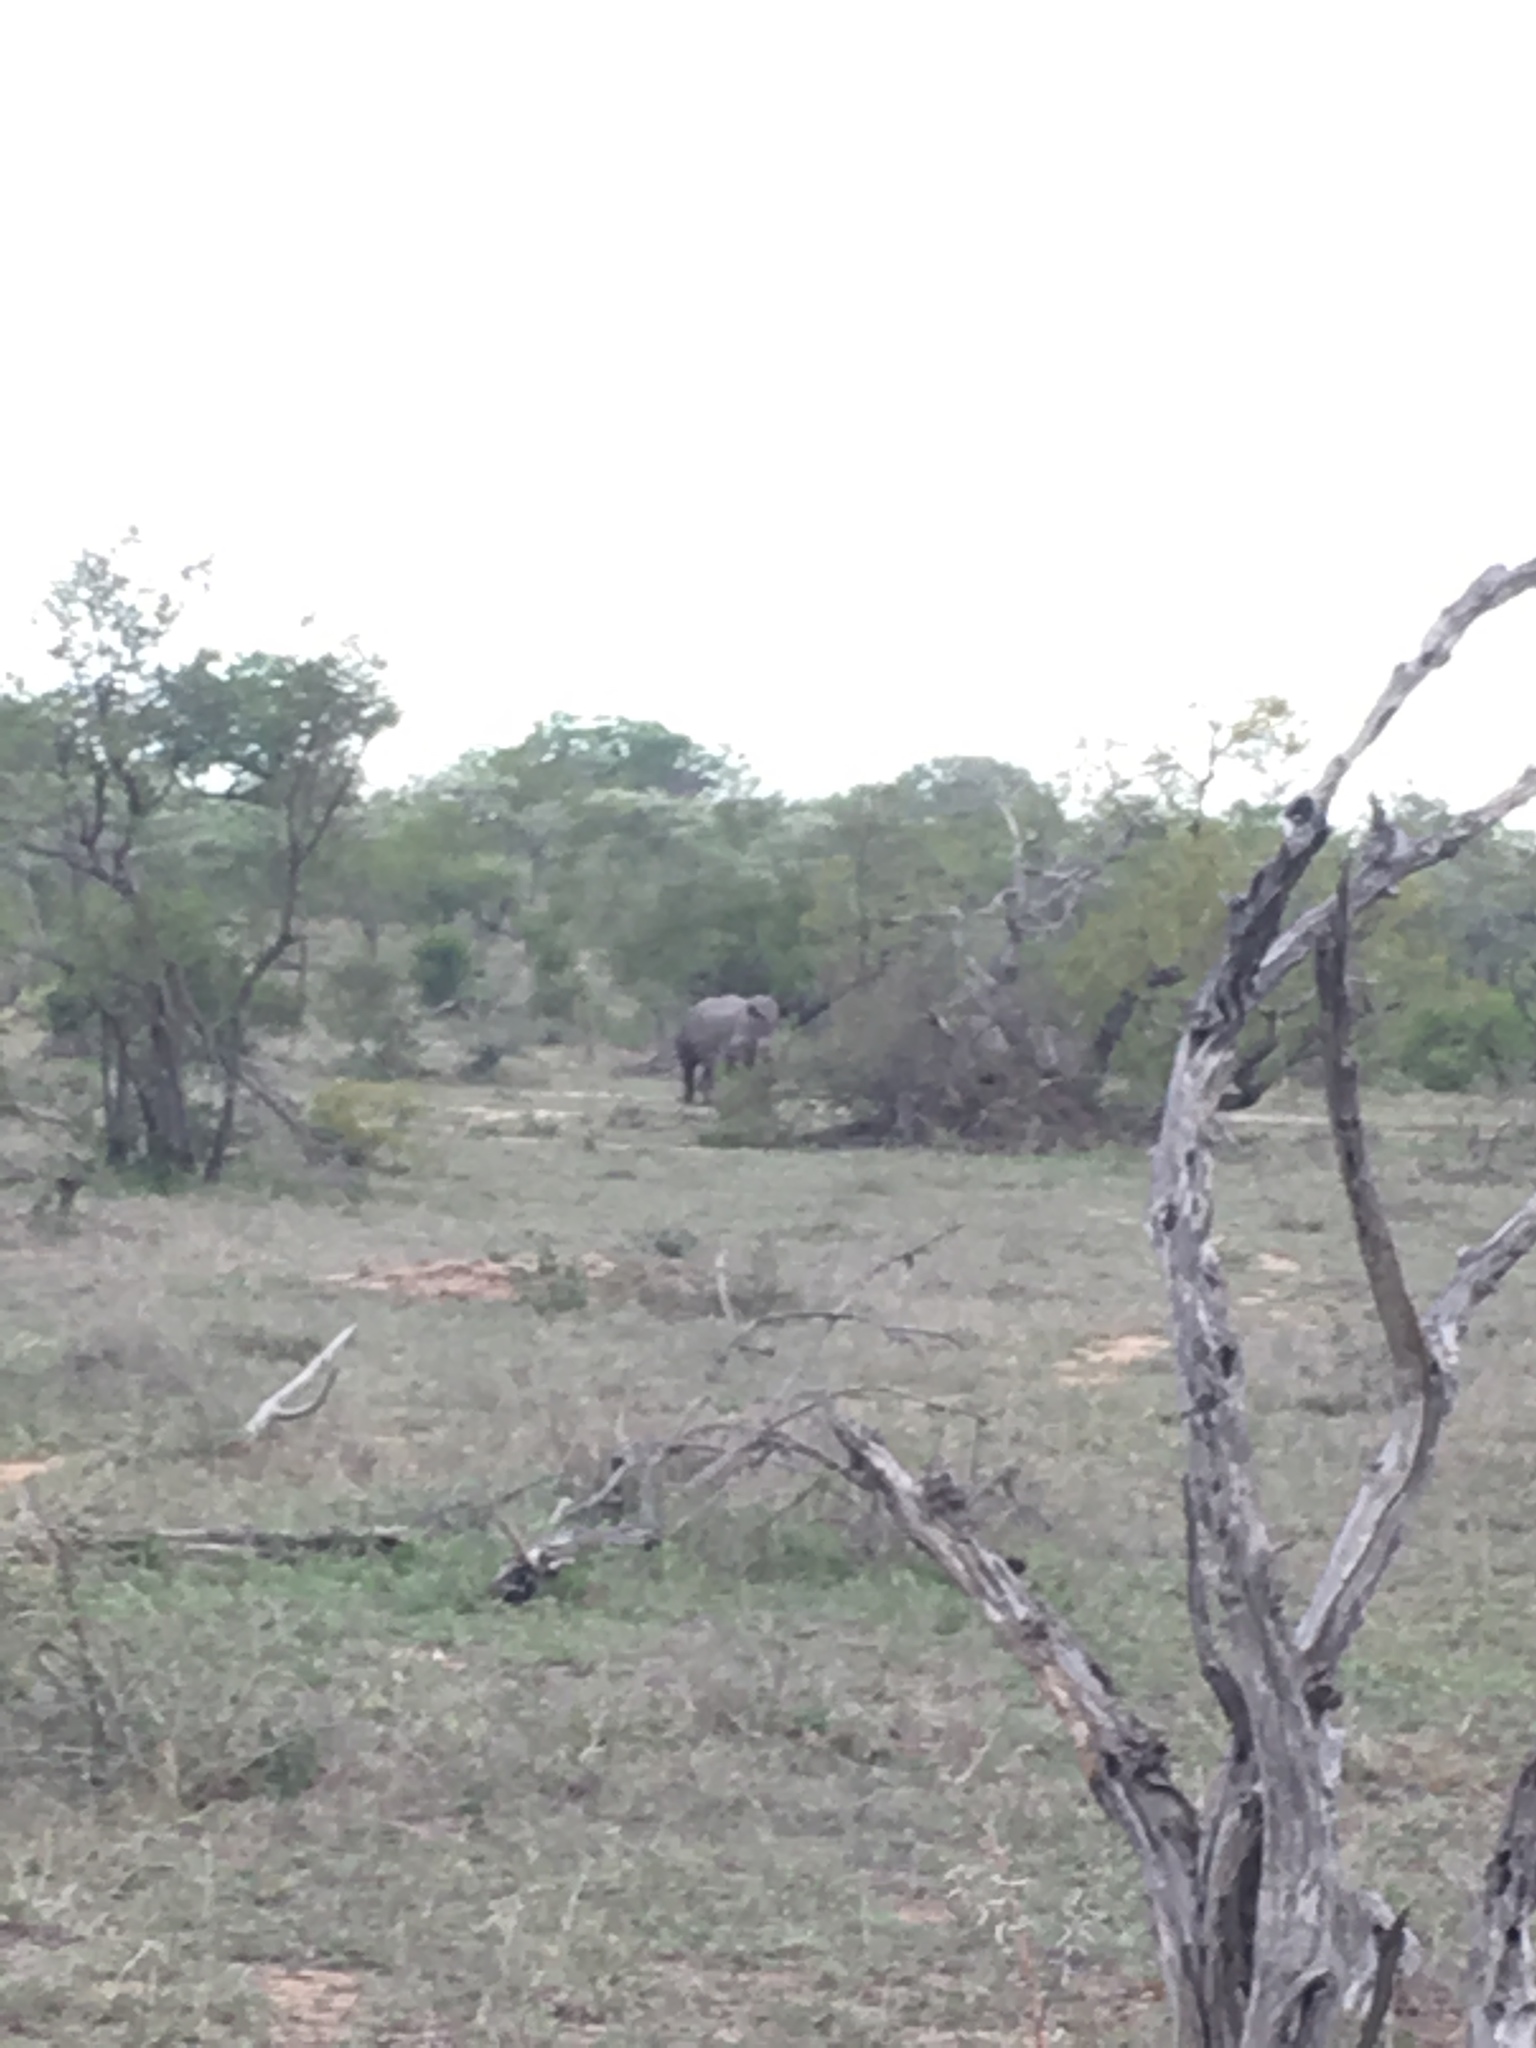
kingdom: Animalia
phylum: Chordata
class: Mammalia
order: Perissodactyla
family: Rhinocerotidae
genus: Ceratotherium
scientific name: Ceratotherium simum
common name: White rhinoceros
